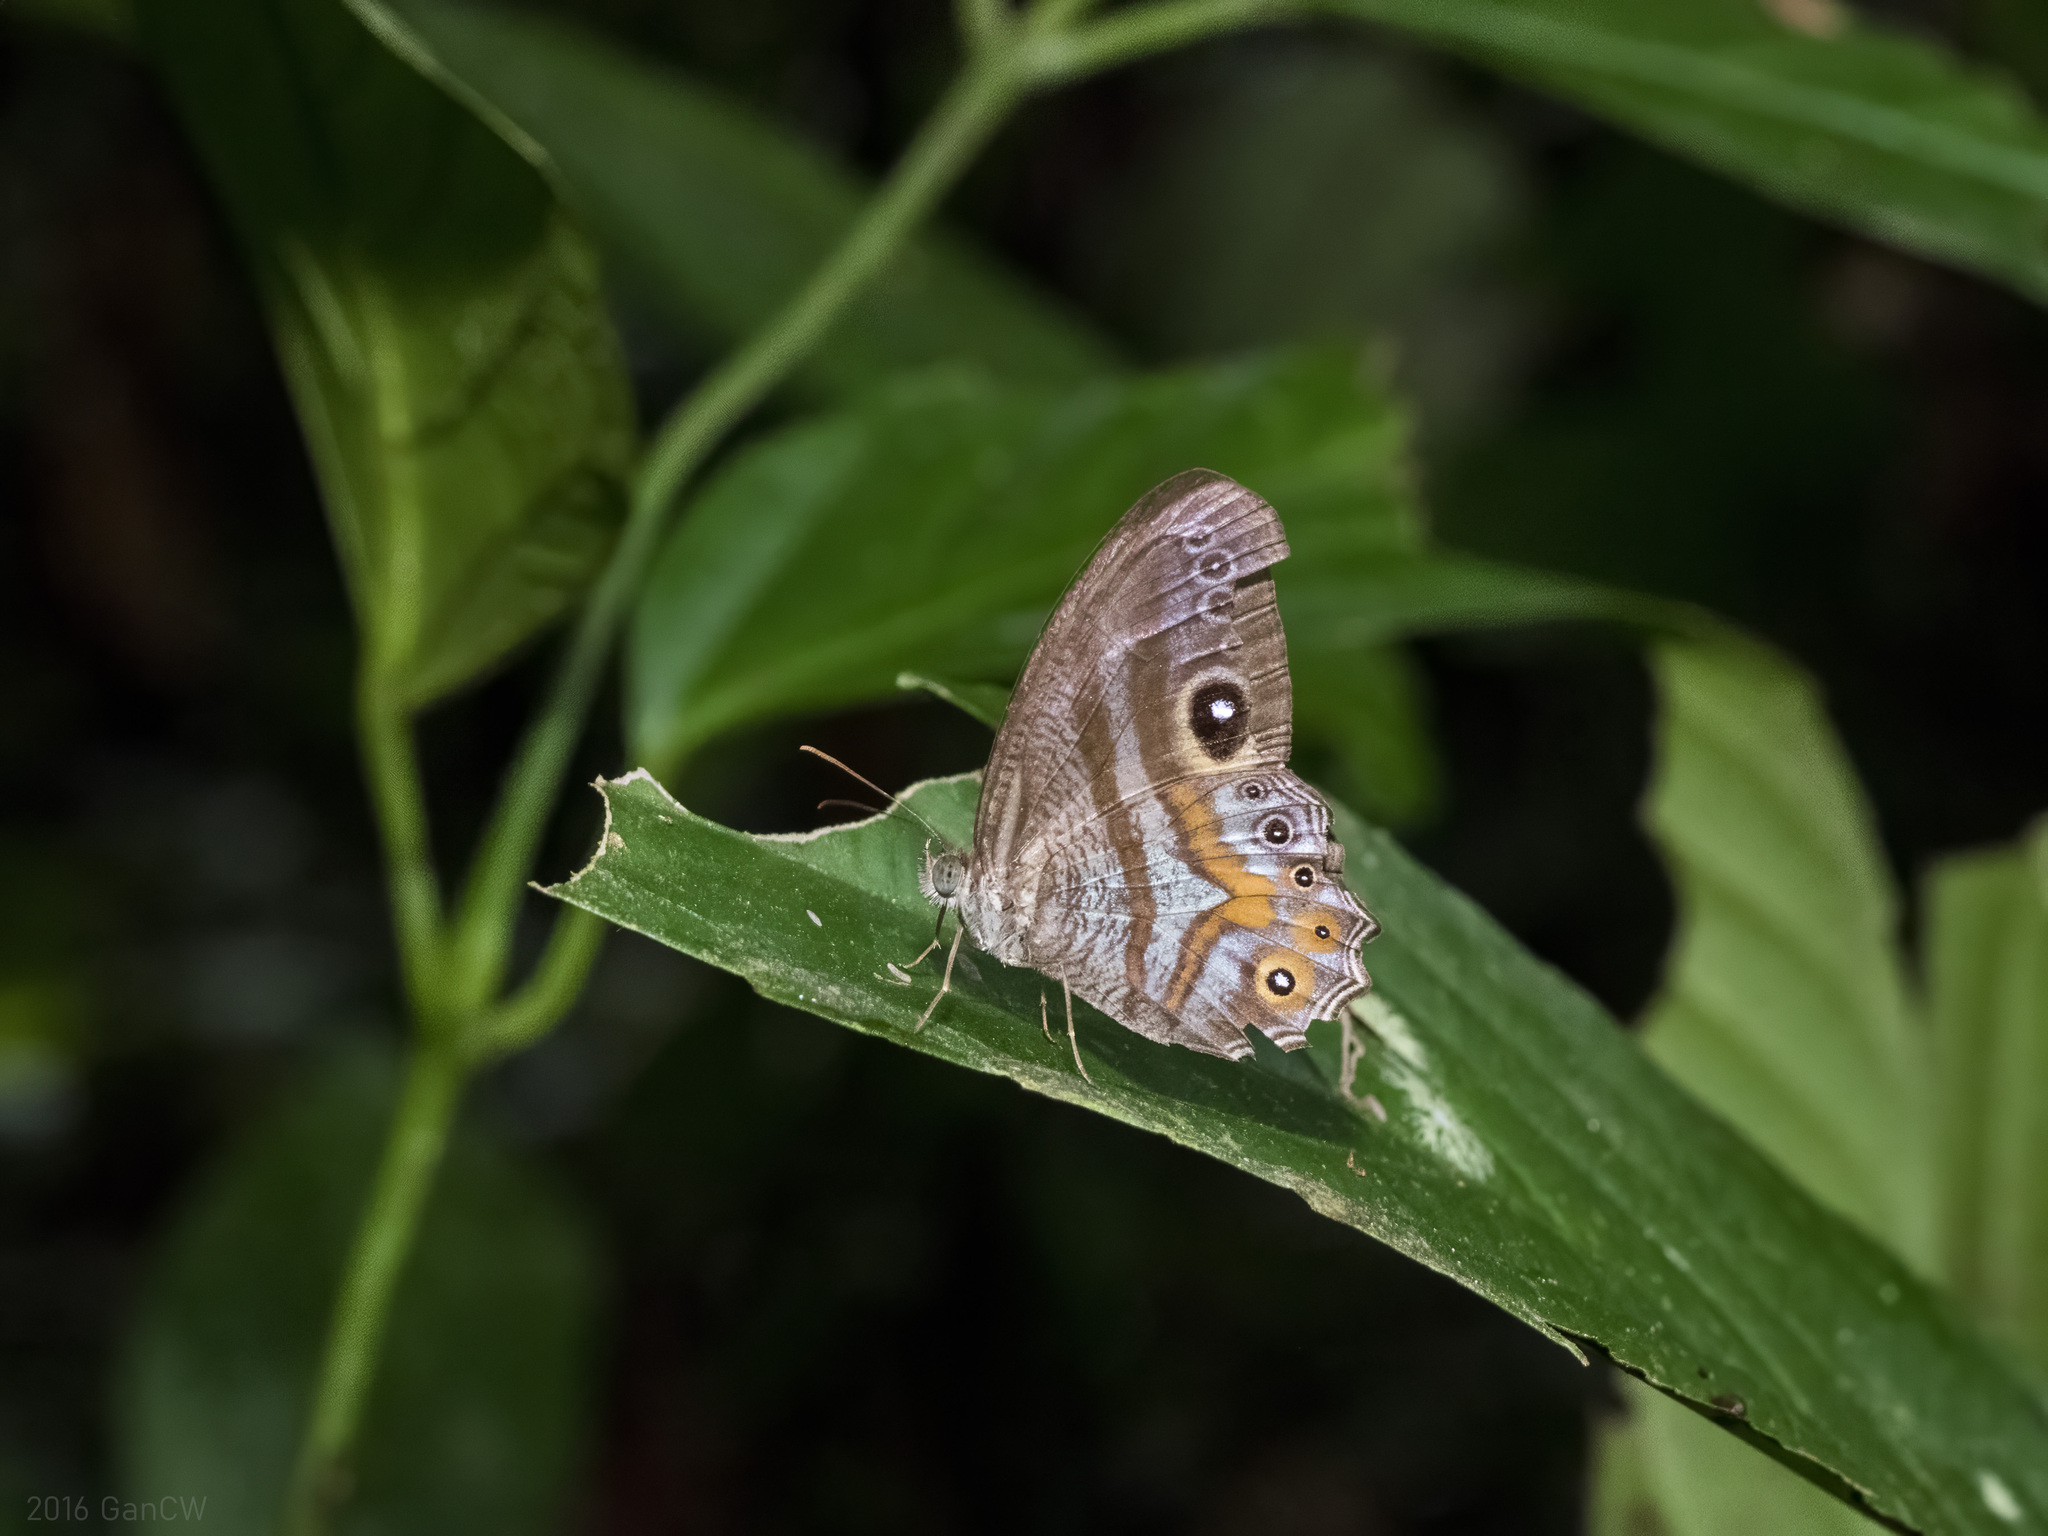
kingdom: Animalia
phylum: Arthropoda
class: Insecta
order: Lepidoptera
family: Nymphalidae
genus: Erites
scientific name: Erites argentina
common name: Eyed cyclops
